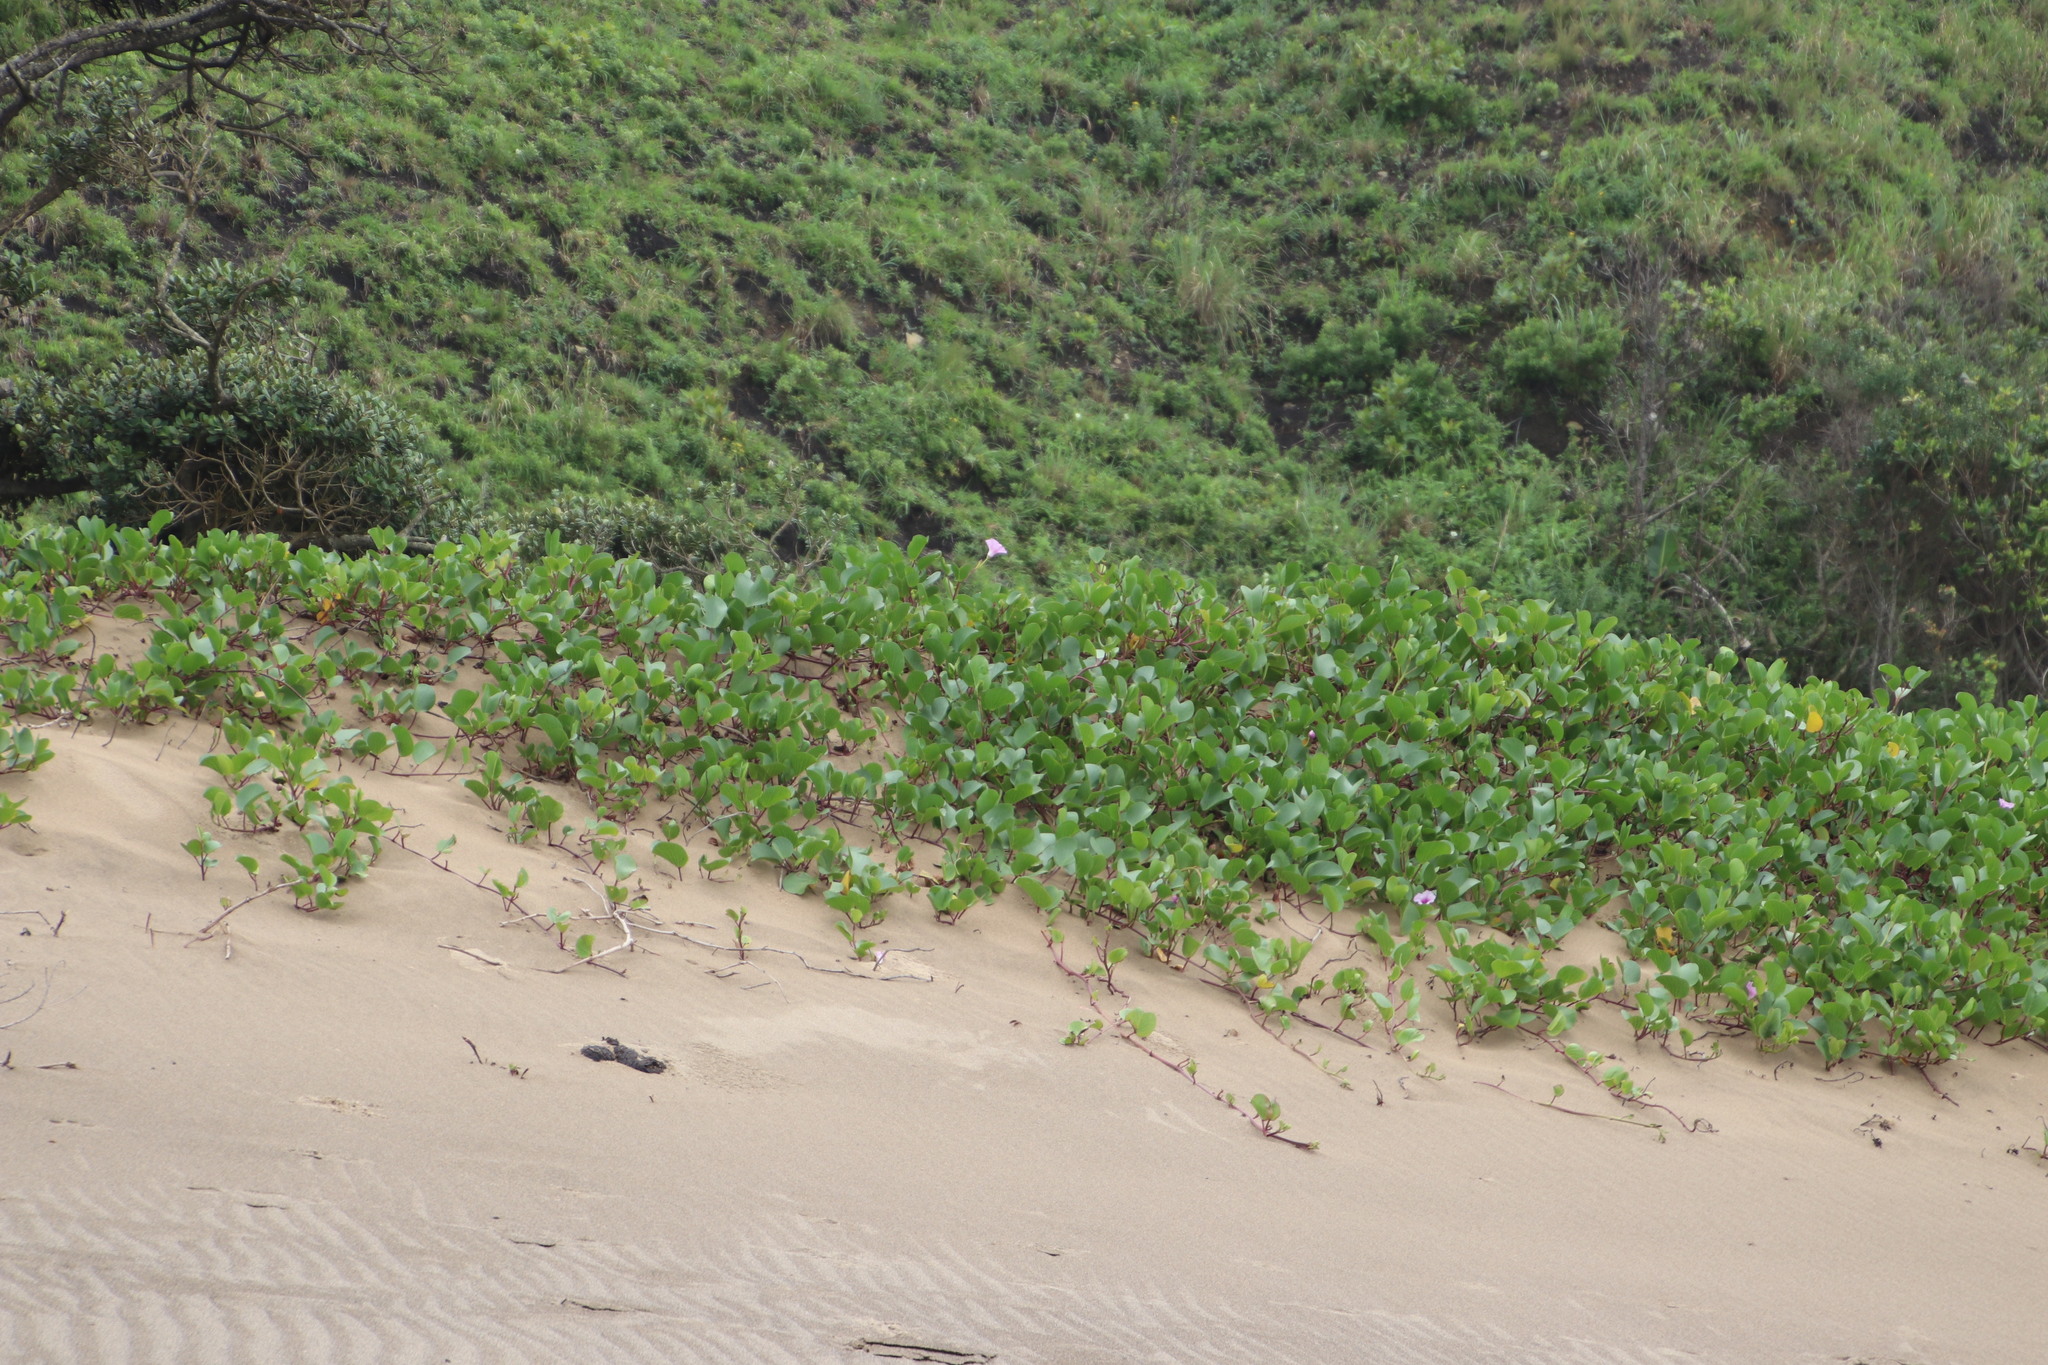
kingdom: Plantae
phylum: Tracheophyta
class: Magnoliopsida
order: Solanales
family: Convolvulaceae
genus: Ipomoea
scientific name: Ipomoea pes-caprae
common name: Beach morning glory
